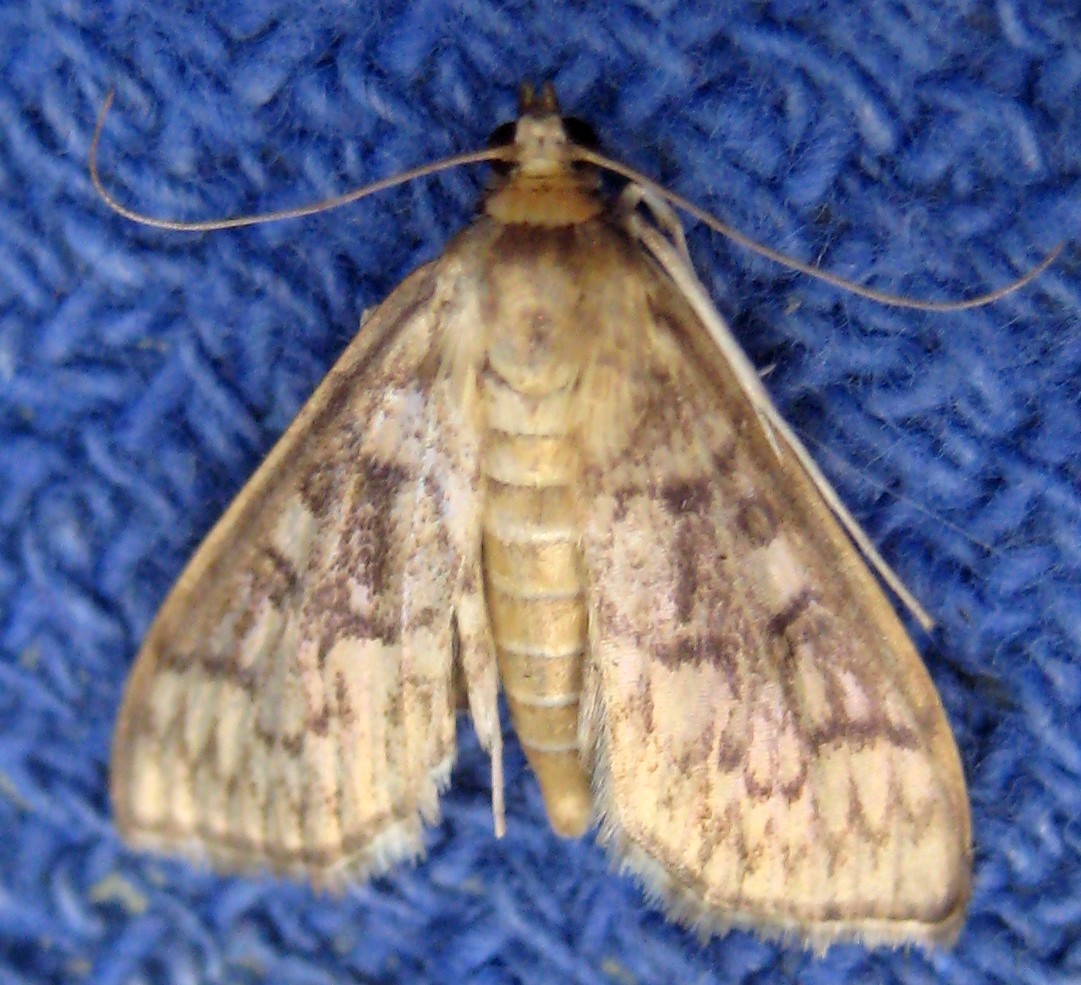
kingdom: Animalia
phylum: Arthropoda
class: Insecta
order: Lepidoptera
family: Crambidae
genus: Herpetogramma
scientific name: Herpetogramma pertextalis
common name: Bold-feathered grass moth
